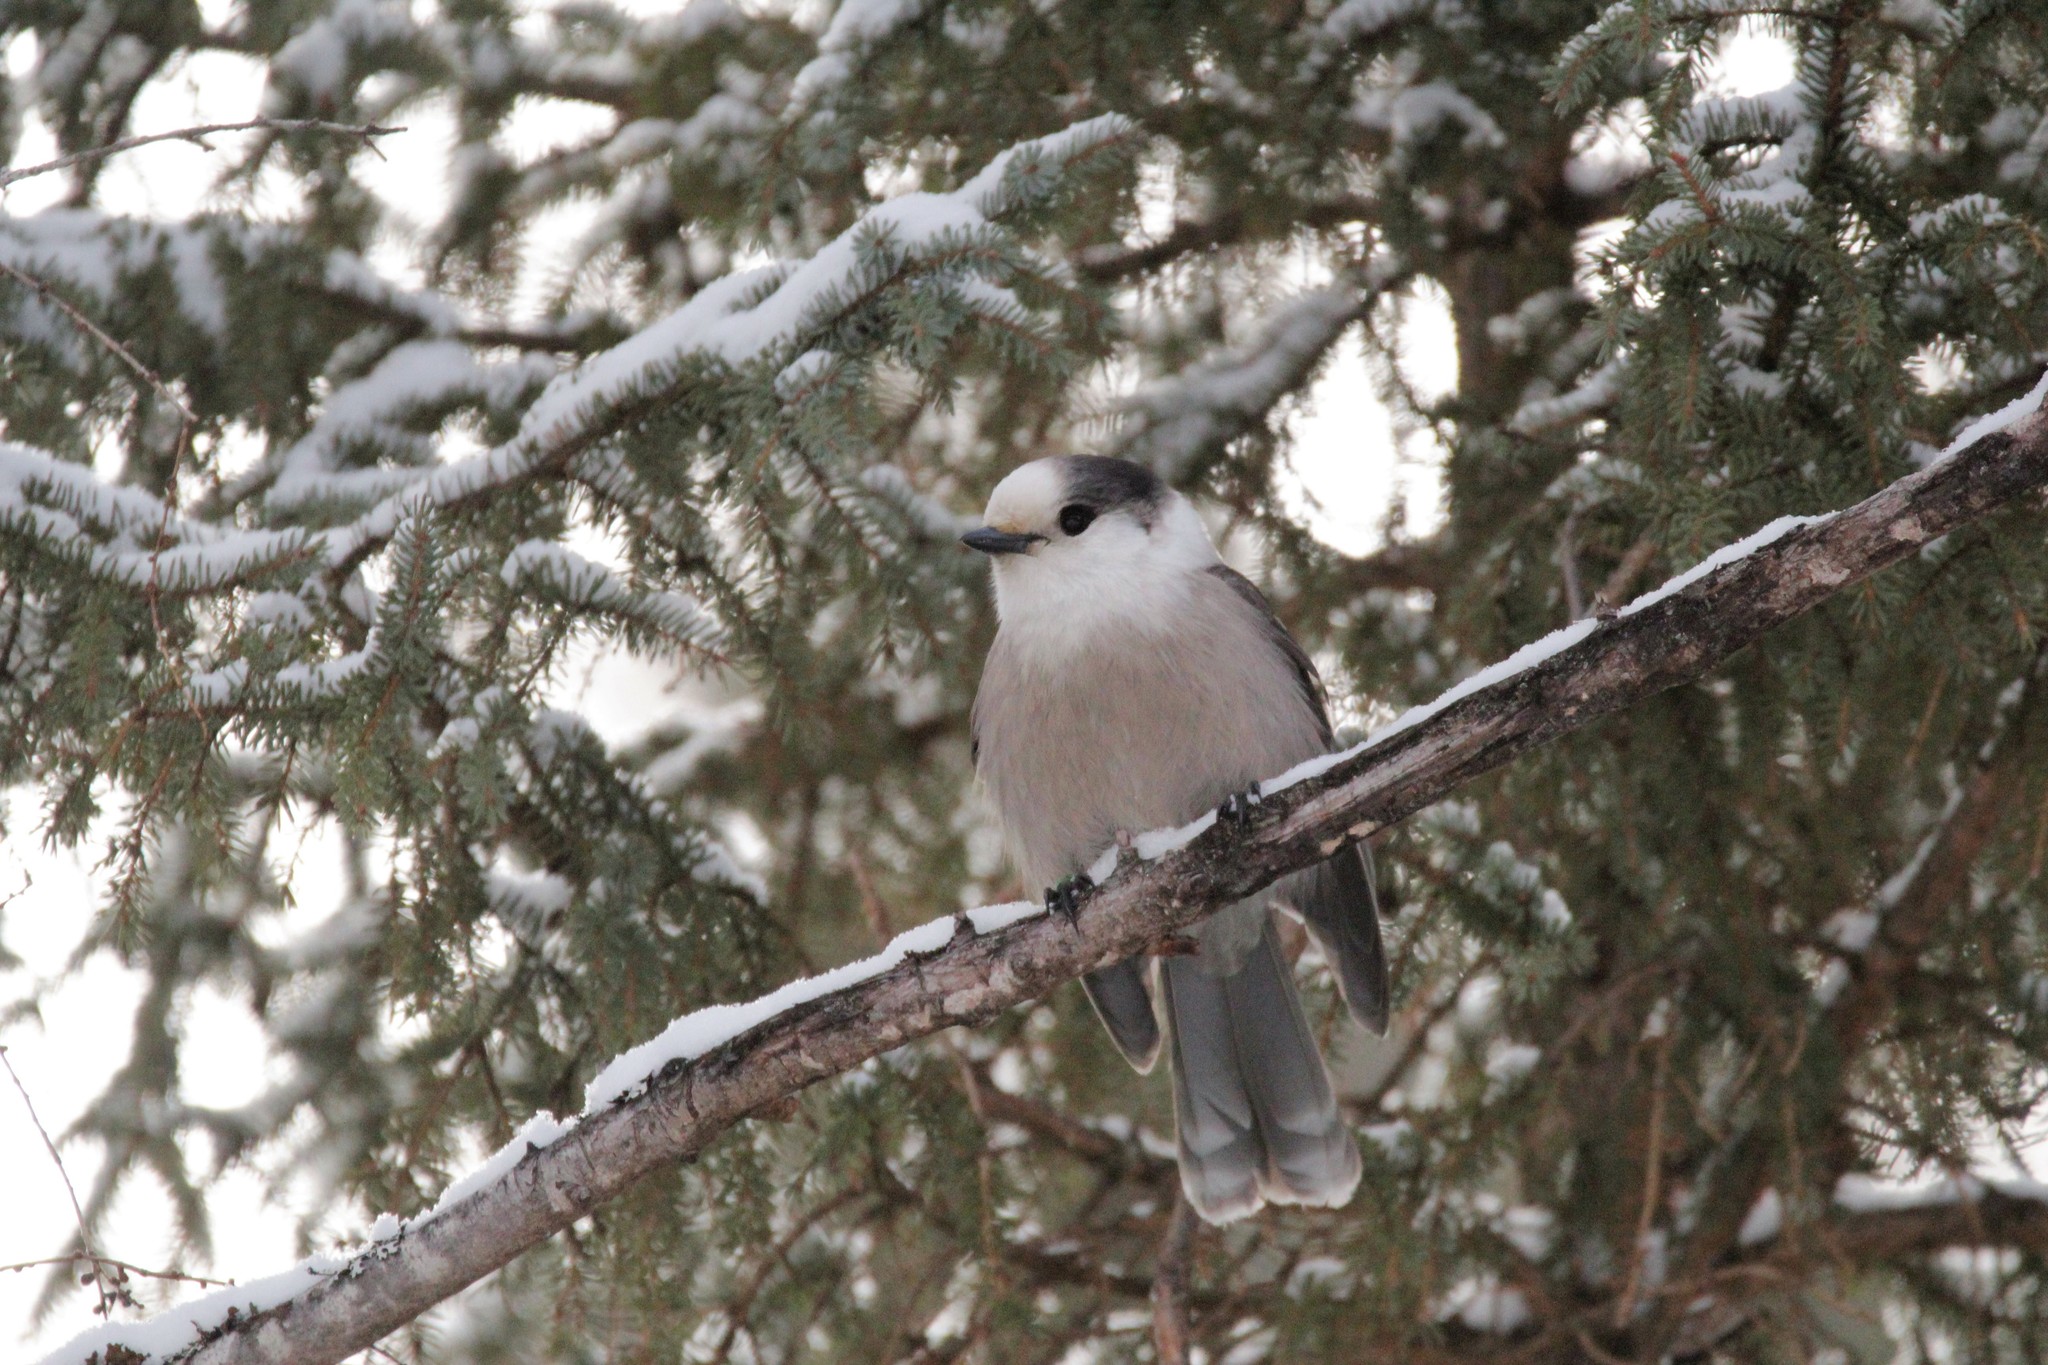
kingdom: Animalia
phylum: Chordata
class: Aves
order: Passeriformes
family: Corvidae
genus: Perisoreus
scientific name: Perisoreus canadensis
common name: Gray jay
